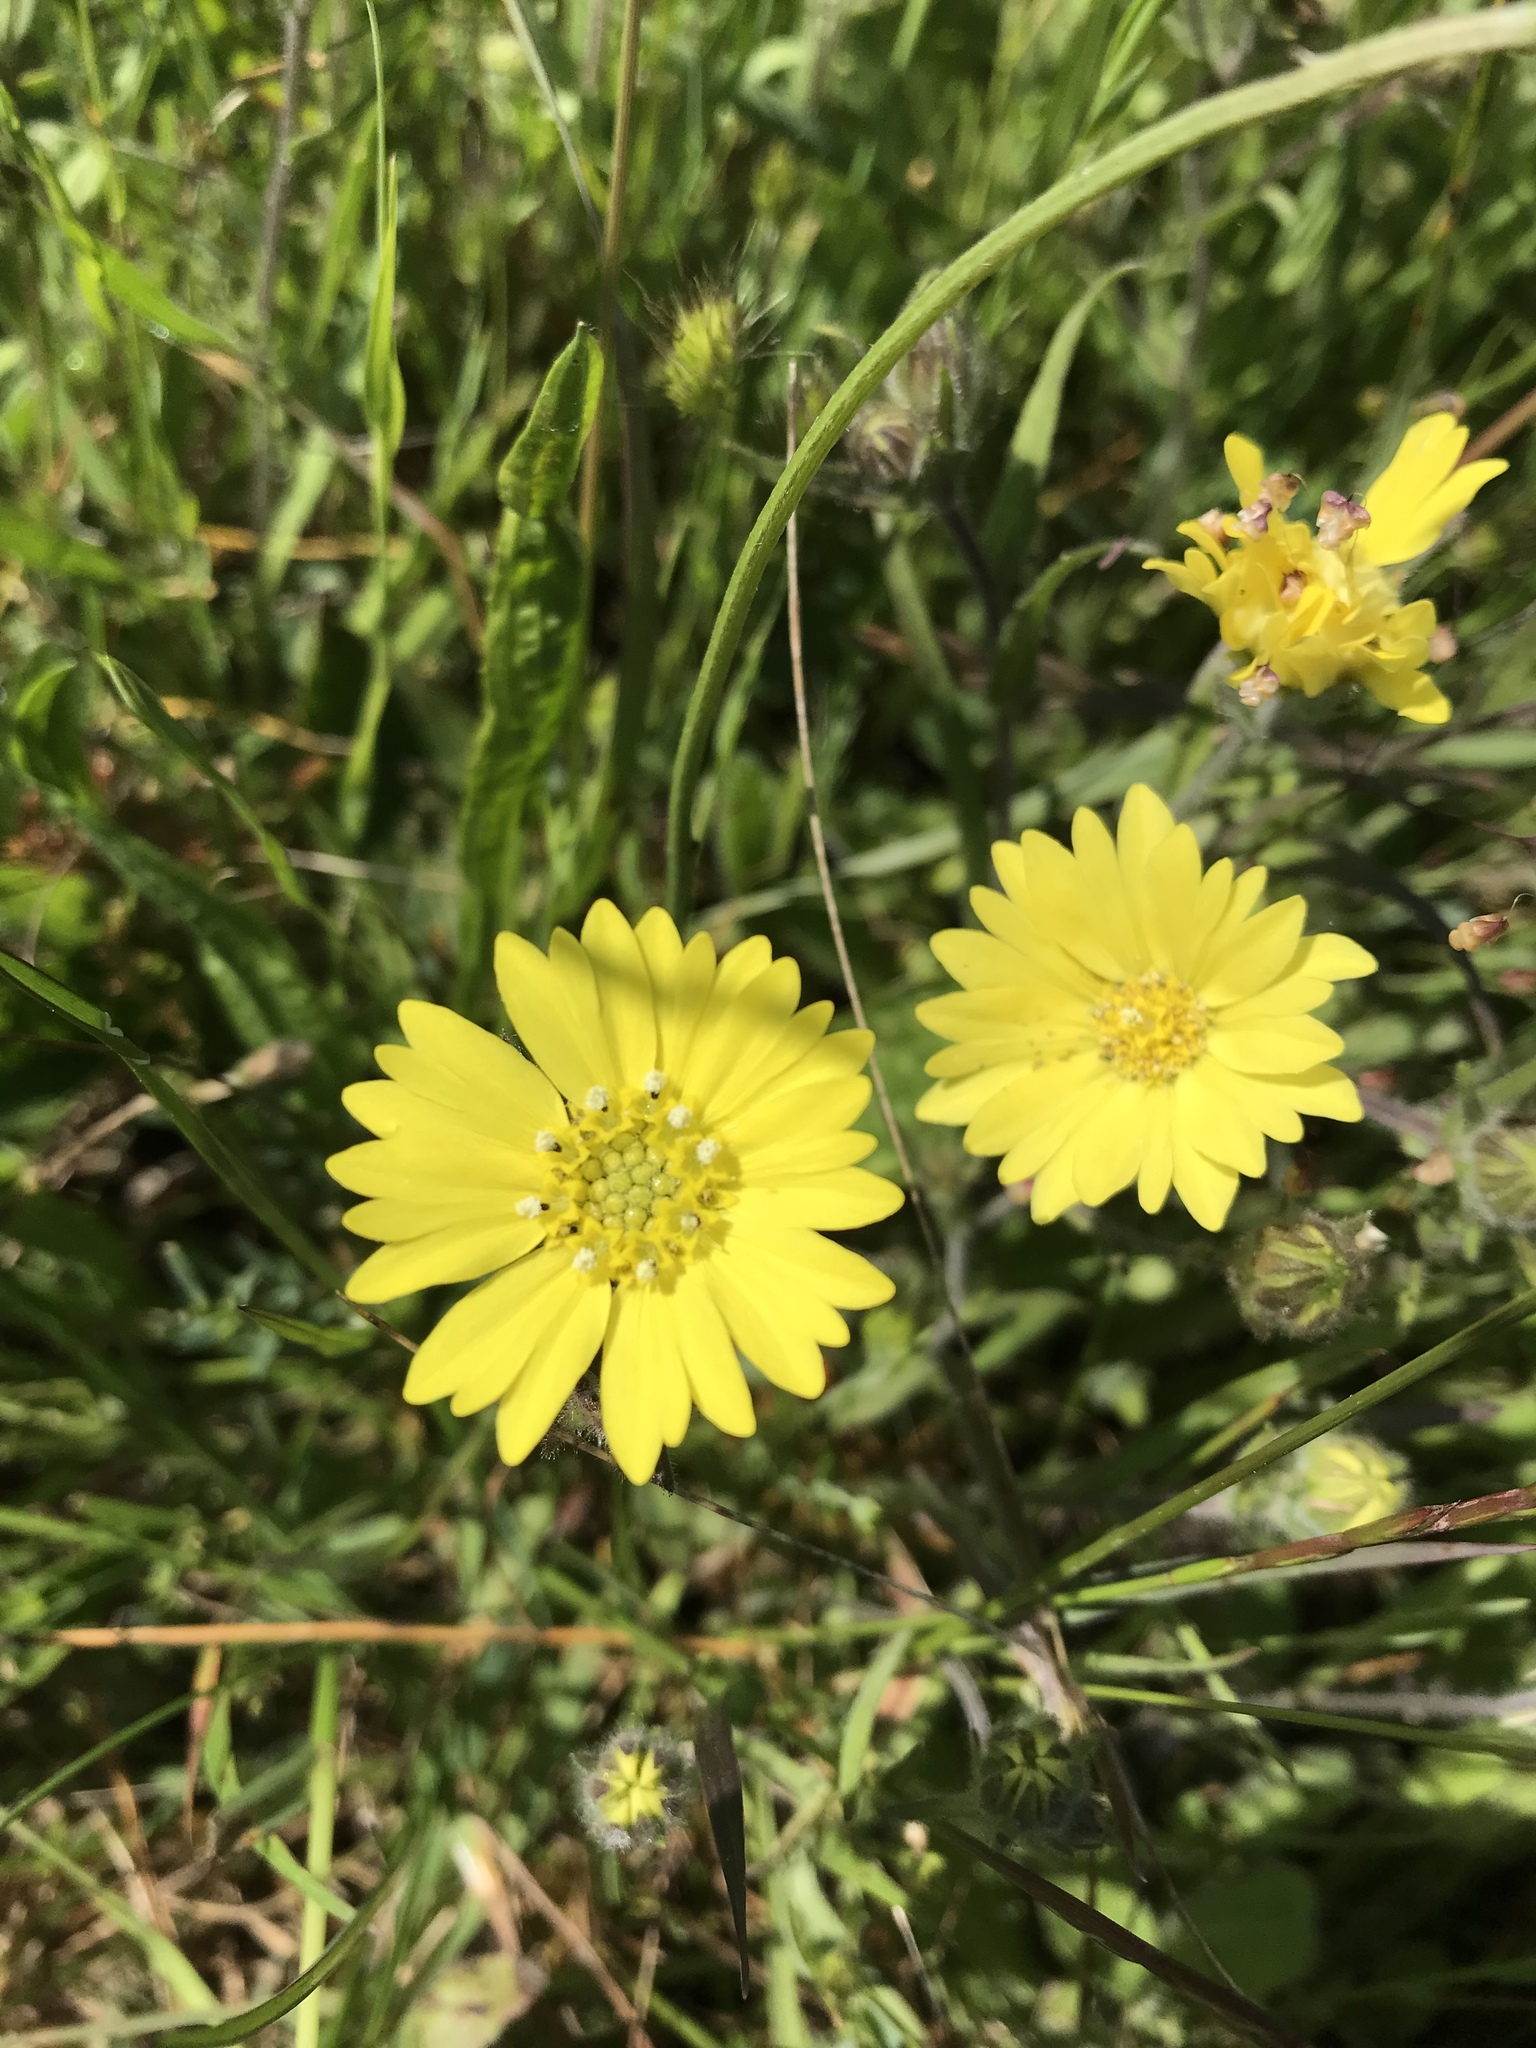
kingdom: Plantae
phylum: Tracheophyta
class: Magnoliopsida
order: Asterales
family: Asteraceae
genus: Hemizonia
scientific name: Hemizonia congesta
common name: Hayfield tarweed
